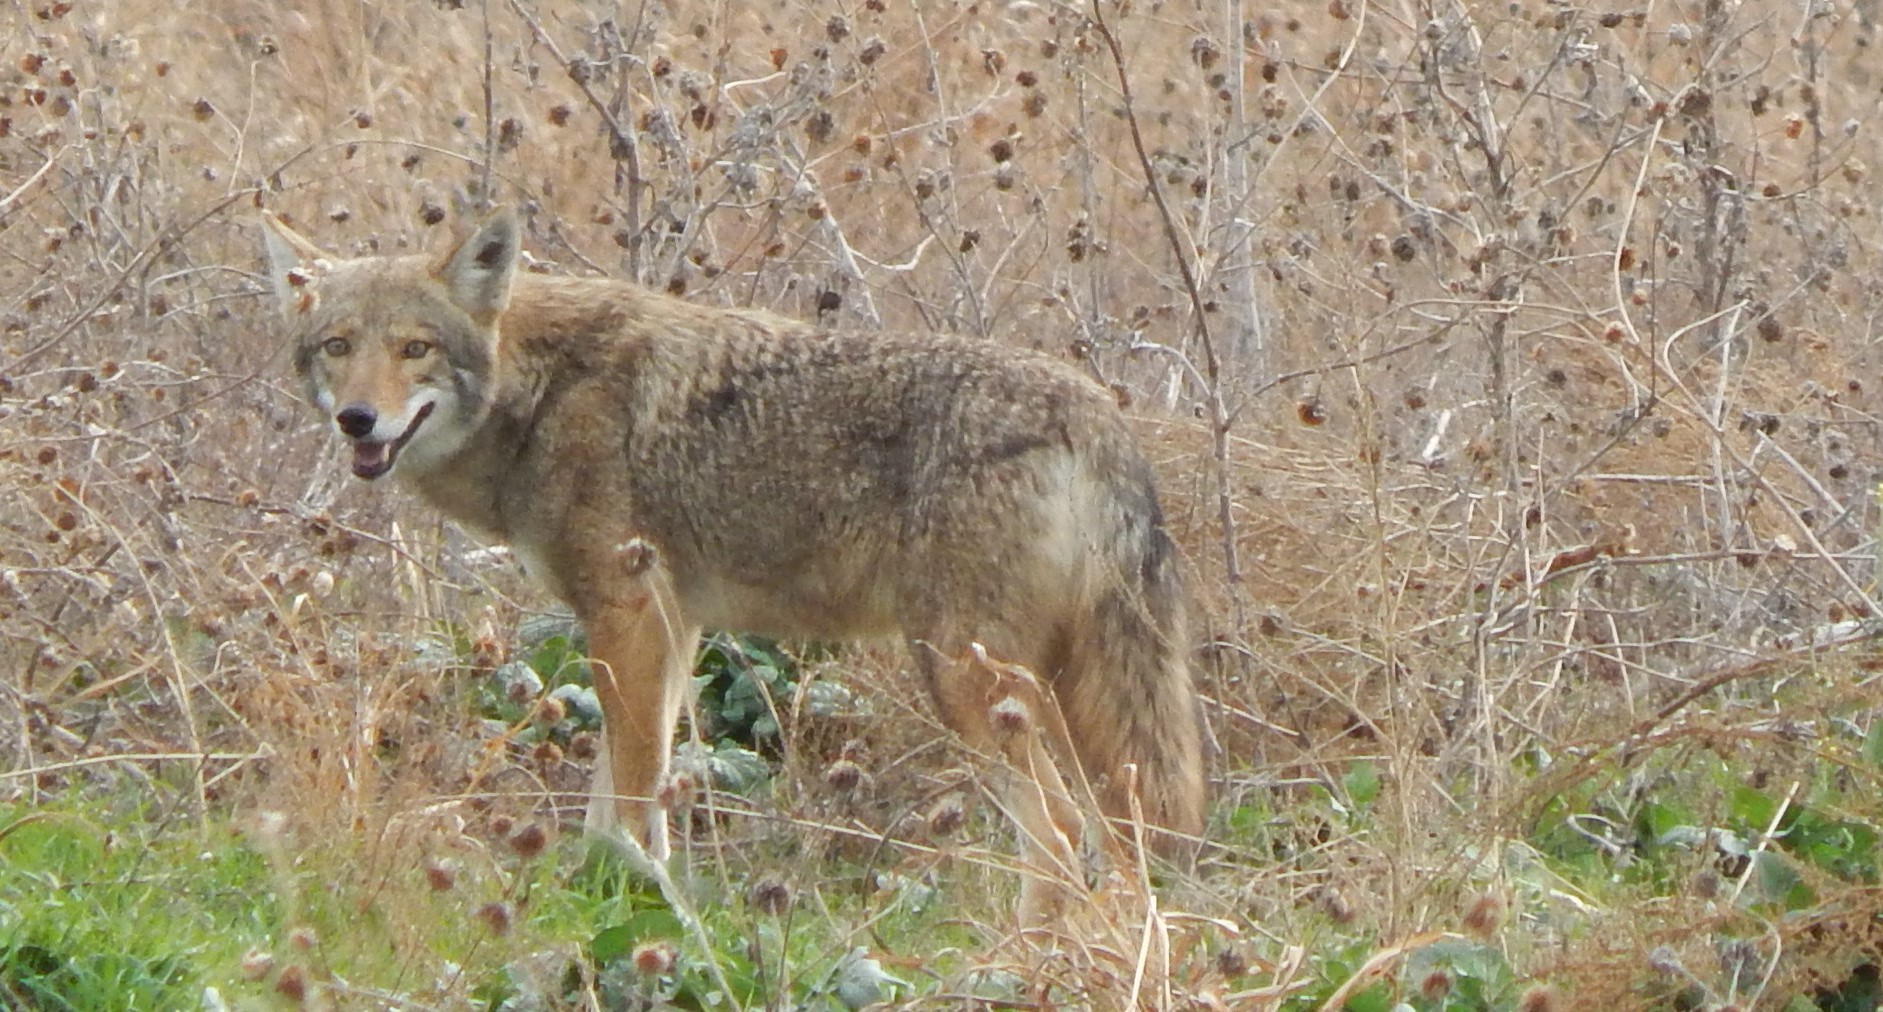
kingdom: Animalia
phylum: Chordata
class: Mammalia
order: Carnivora
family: Canidae
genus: Canis
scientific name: Canis latrans
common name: Coyote
